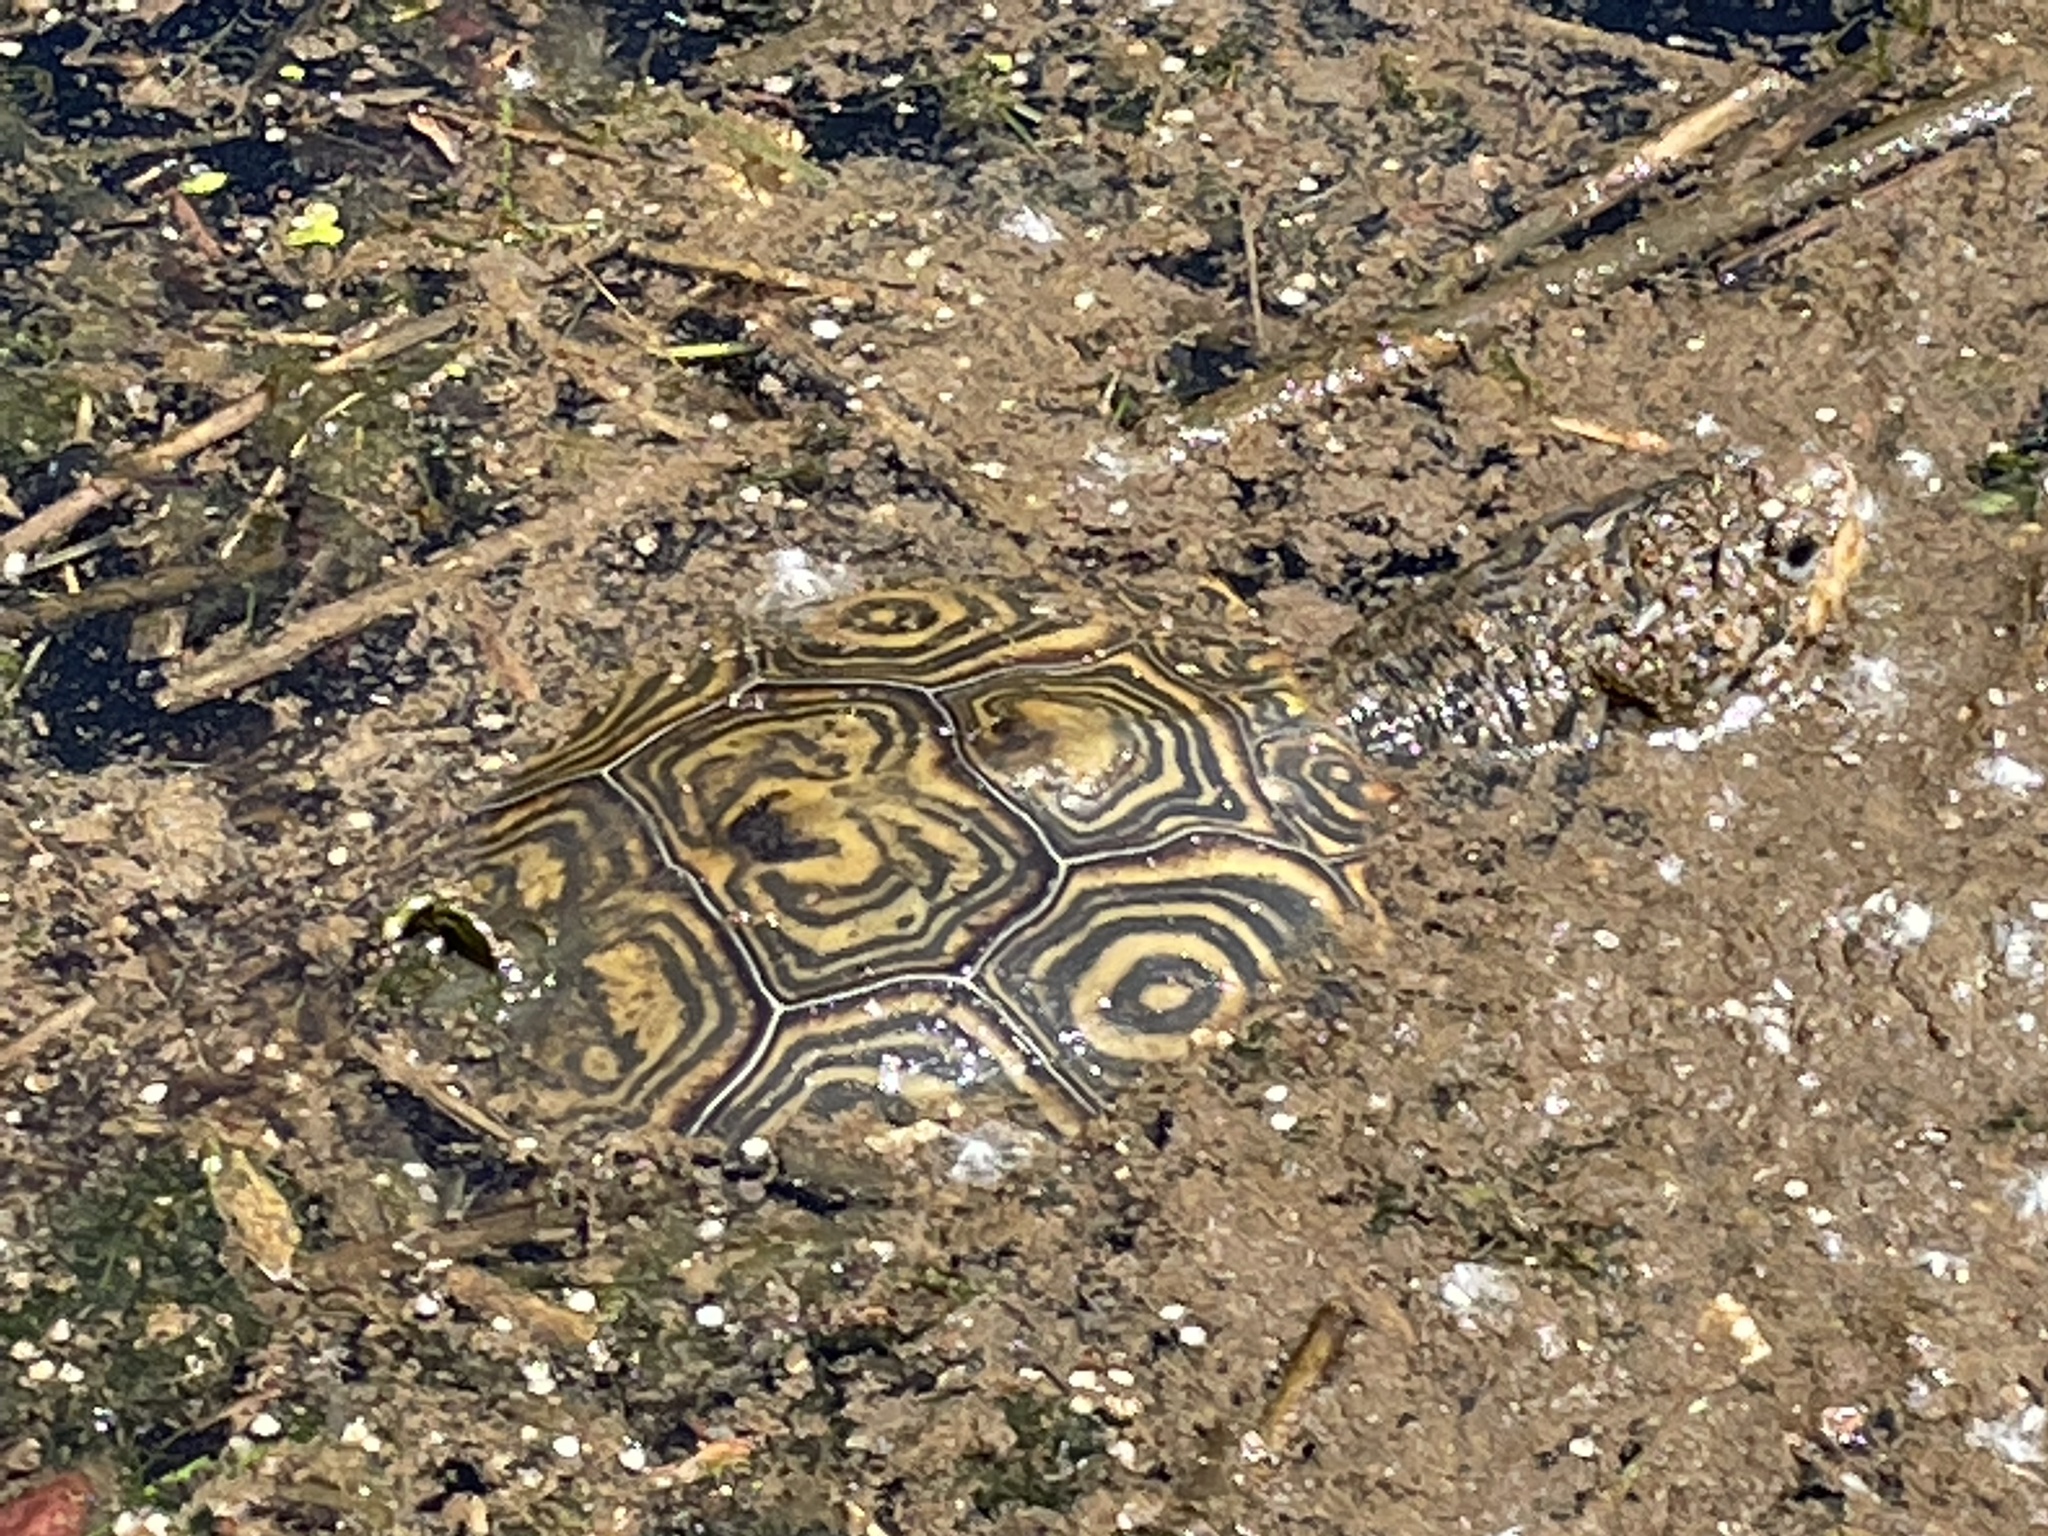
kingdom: Animalia
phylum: Chordata
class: Testudines
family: Emydidae
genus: Malaclemys
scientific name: Malaclemys terrapin
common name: Diamondback terrapin
